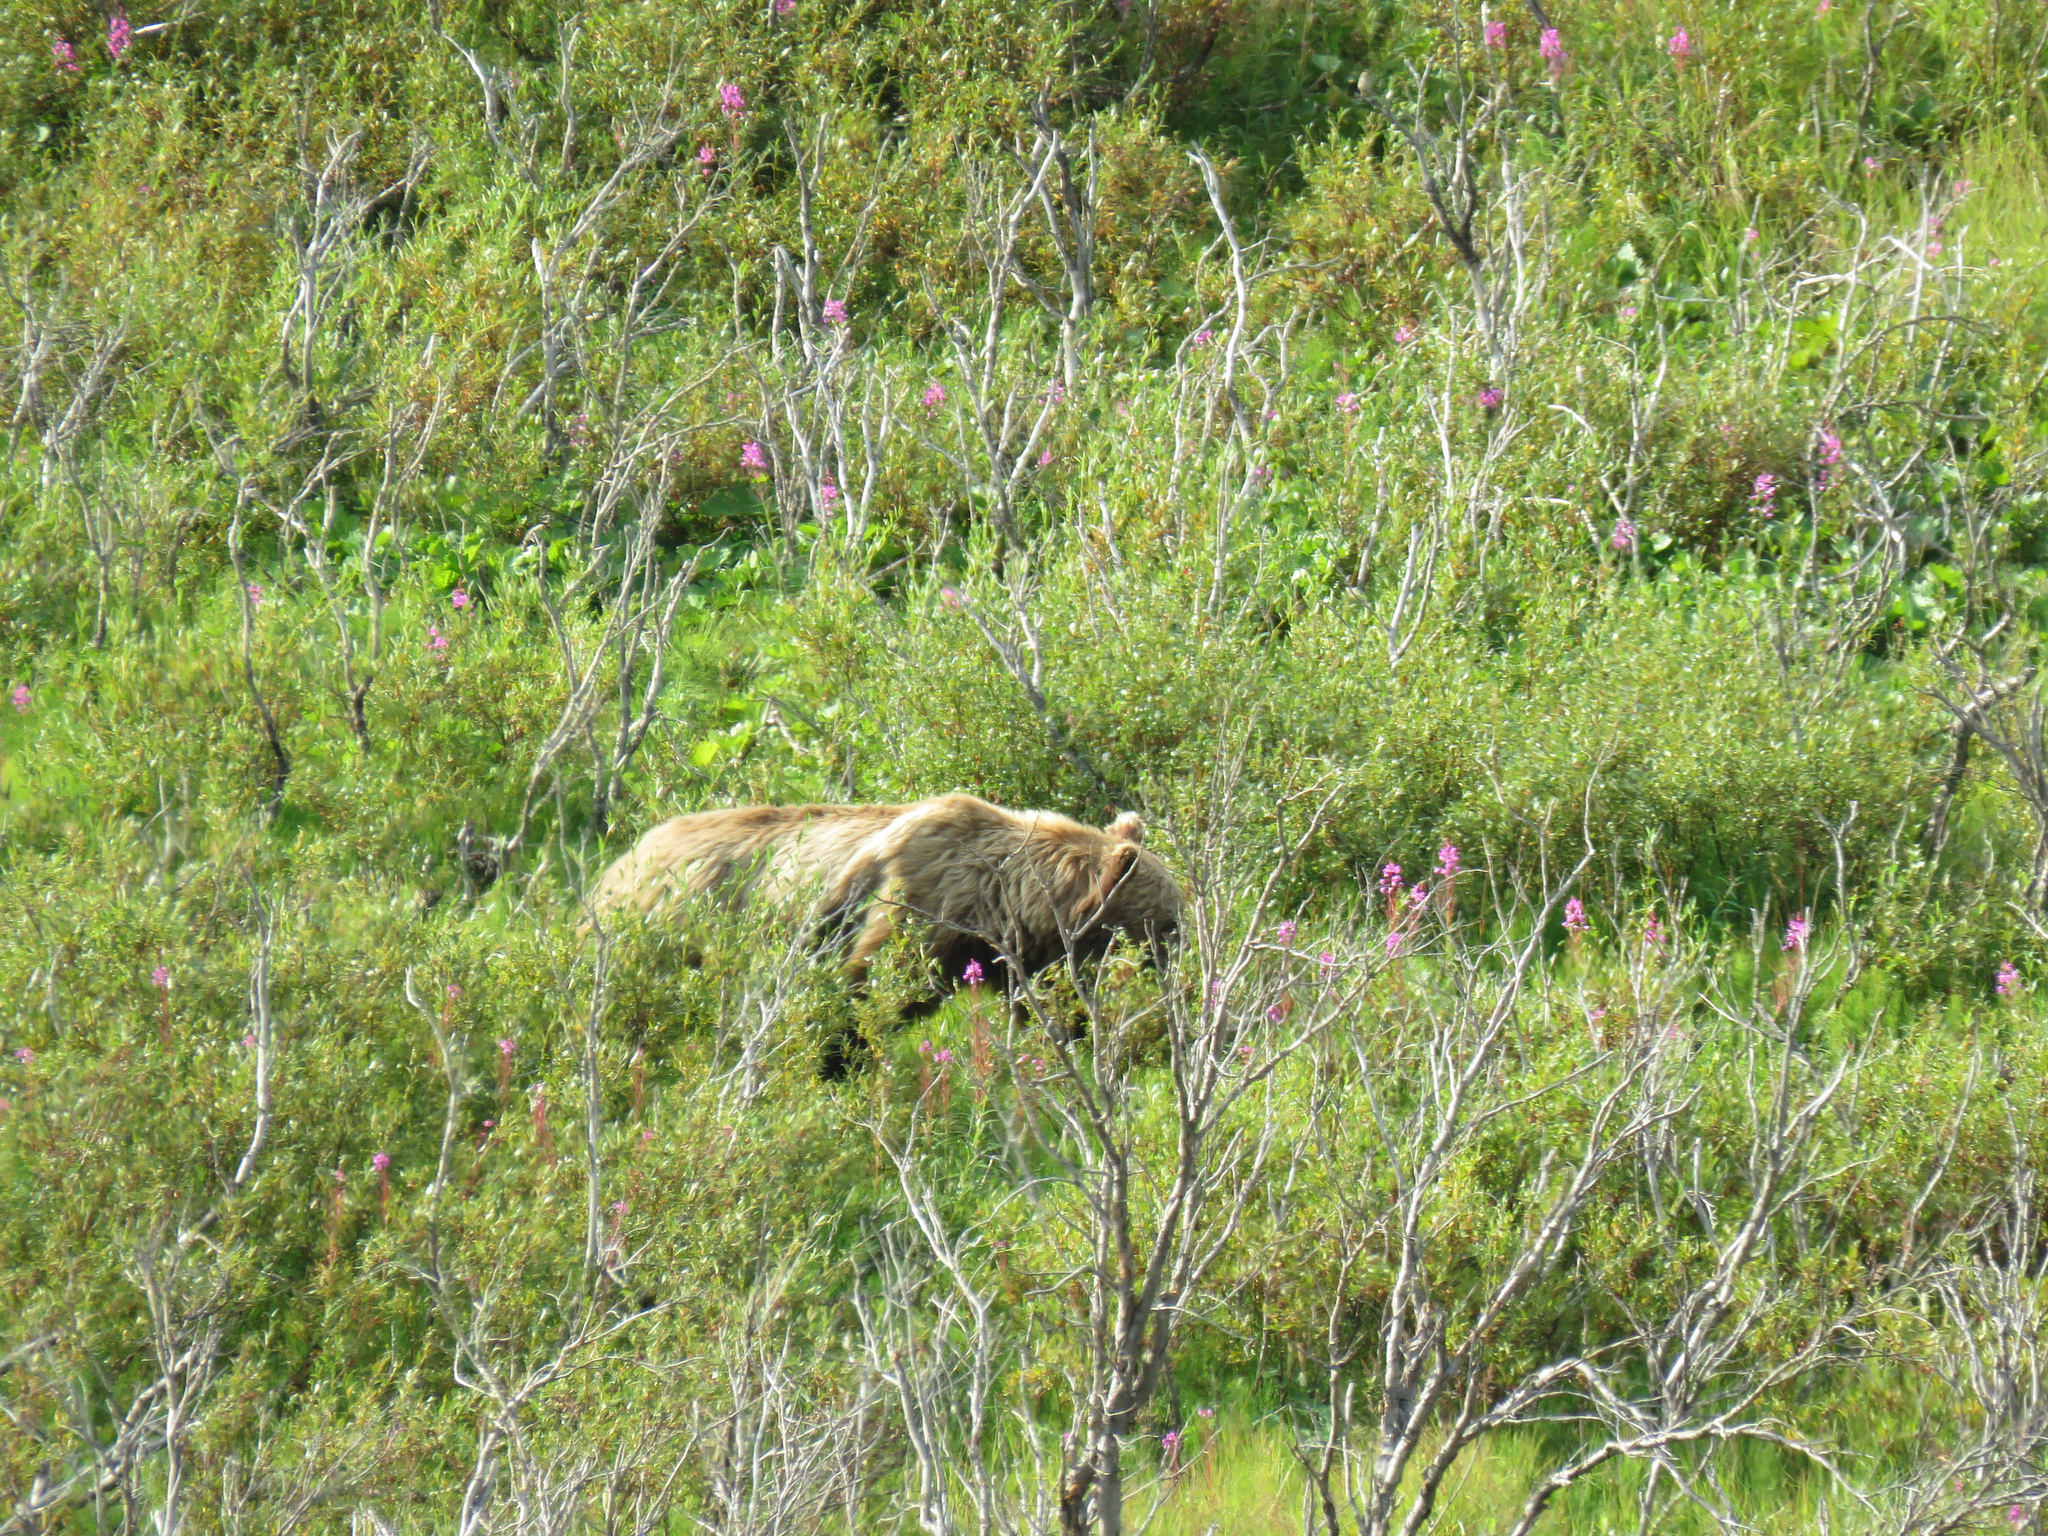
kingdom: Animalia
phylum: Chordata
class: Mammalia
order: Carnivora
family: Ursidae
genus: Ursus
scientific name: Ursus arctos
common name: Brown bear
